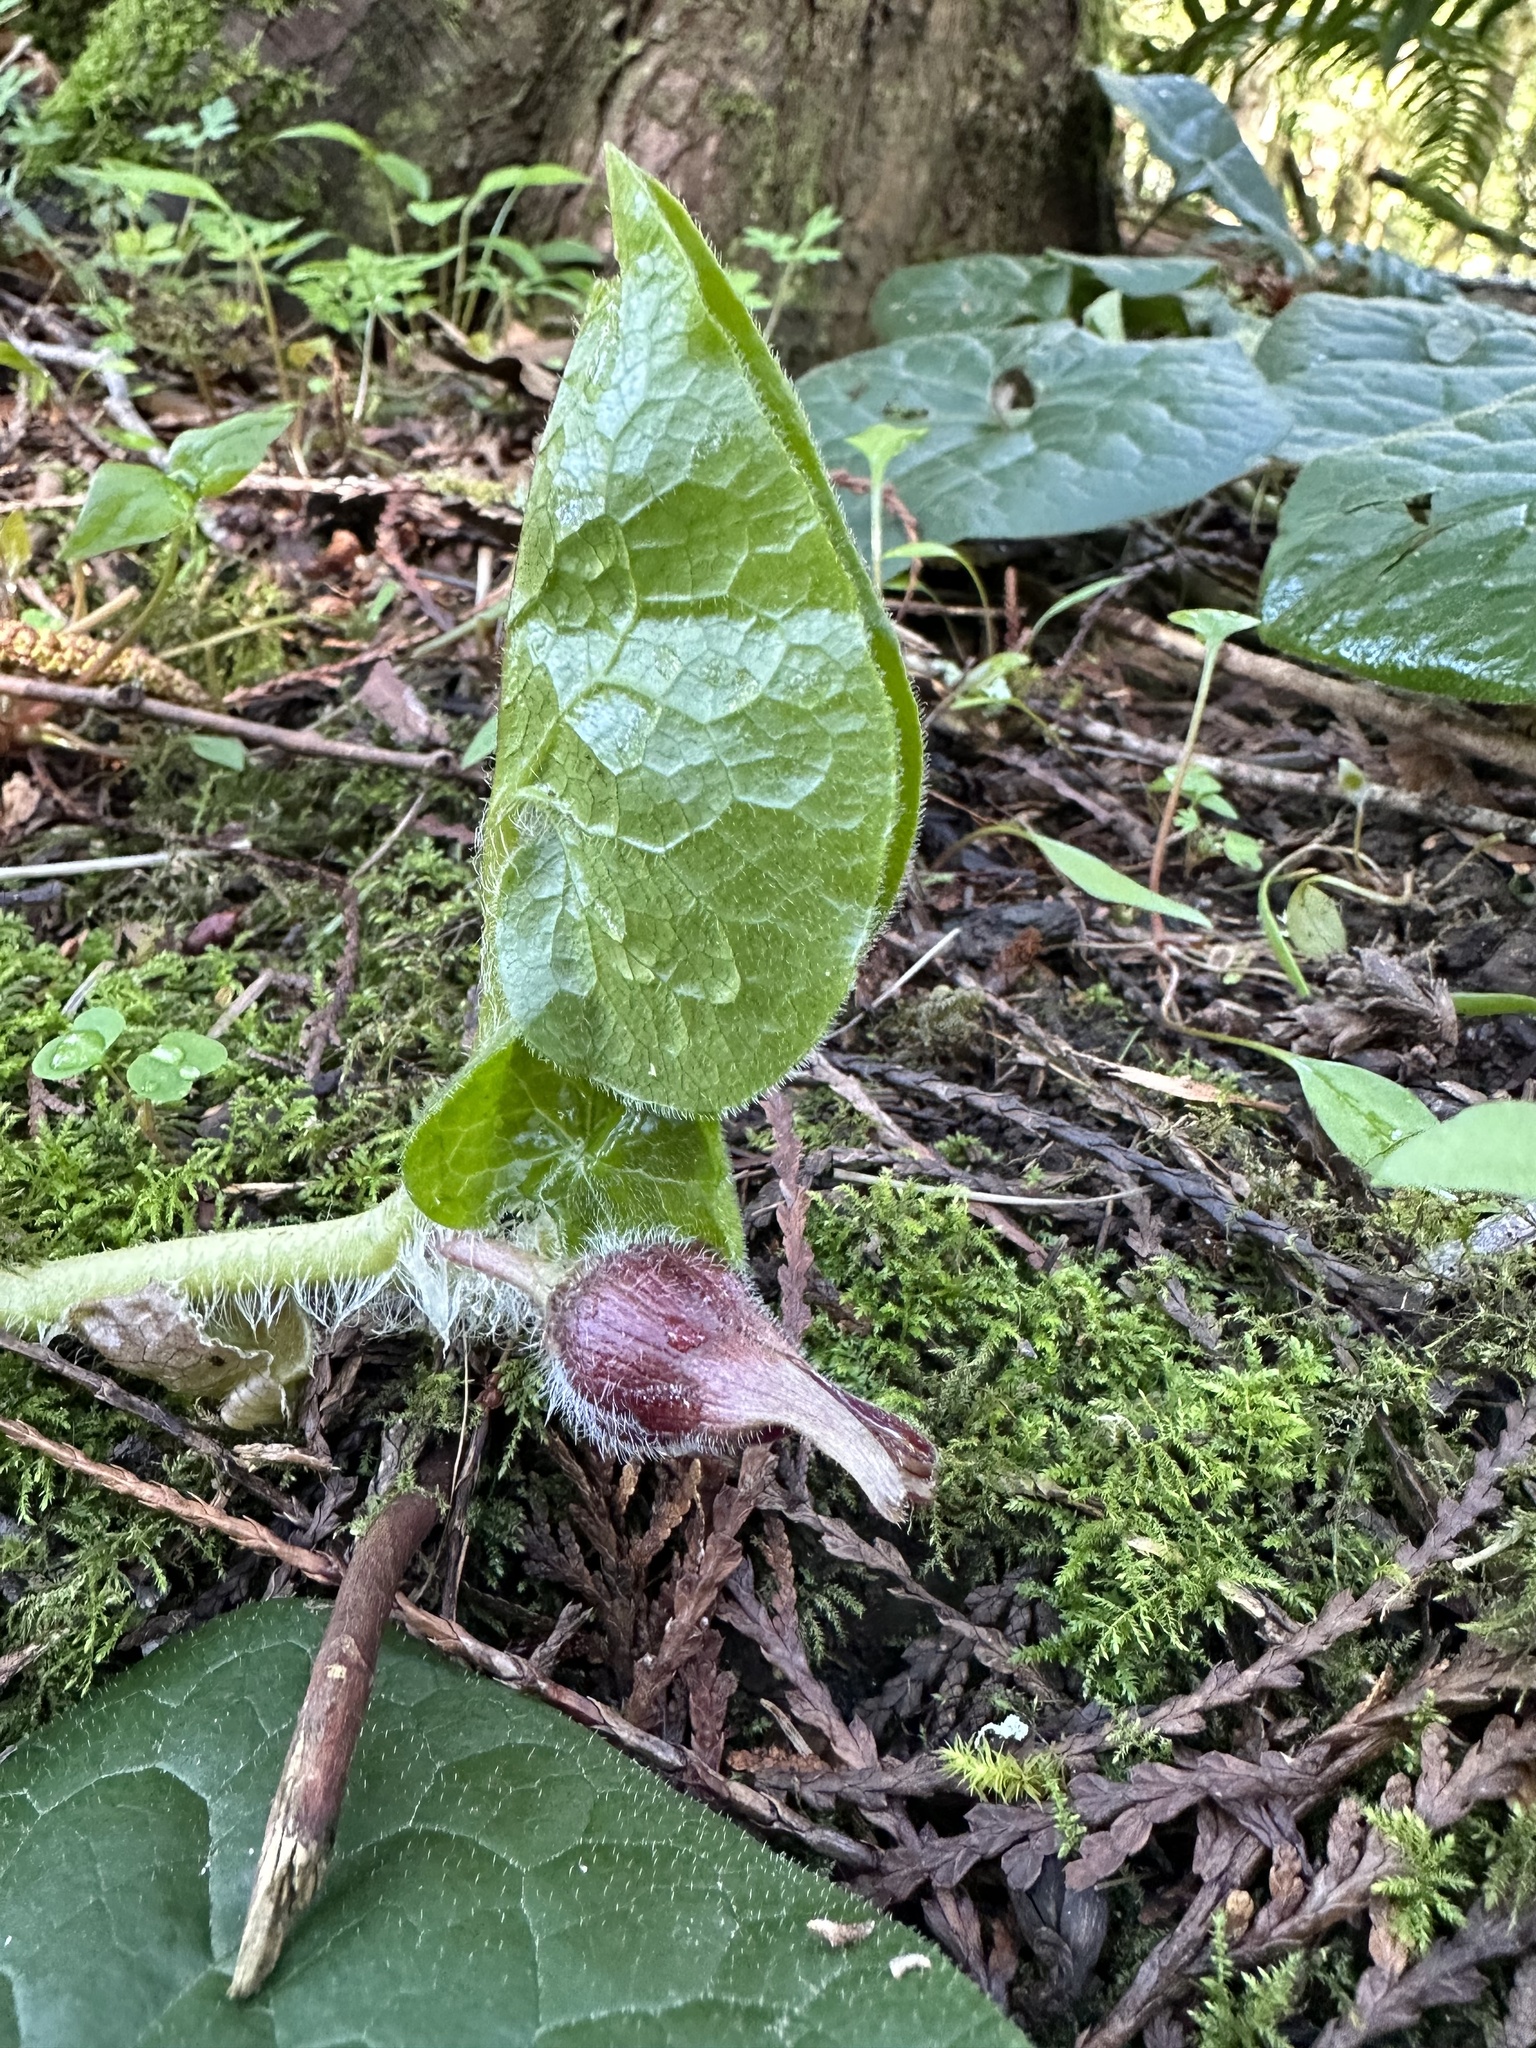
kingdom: Plantae
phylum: Tracheophyta
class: Magnoliopsida
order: Piperales
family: Aristolochiaceae
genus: Asarum
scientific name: Asarum caudatum
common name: Wild ginger
